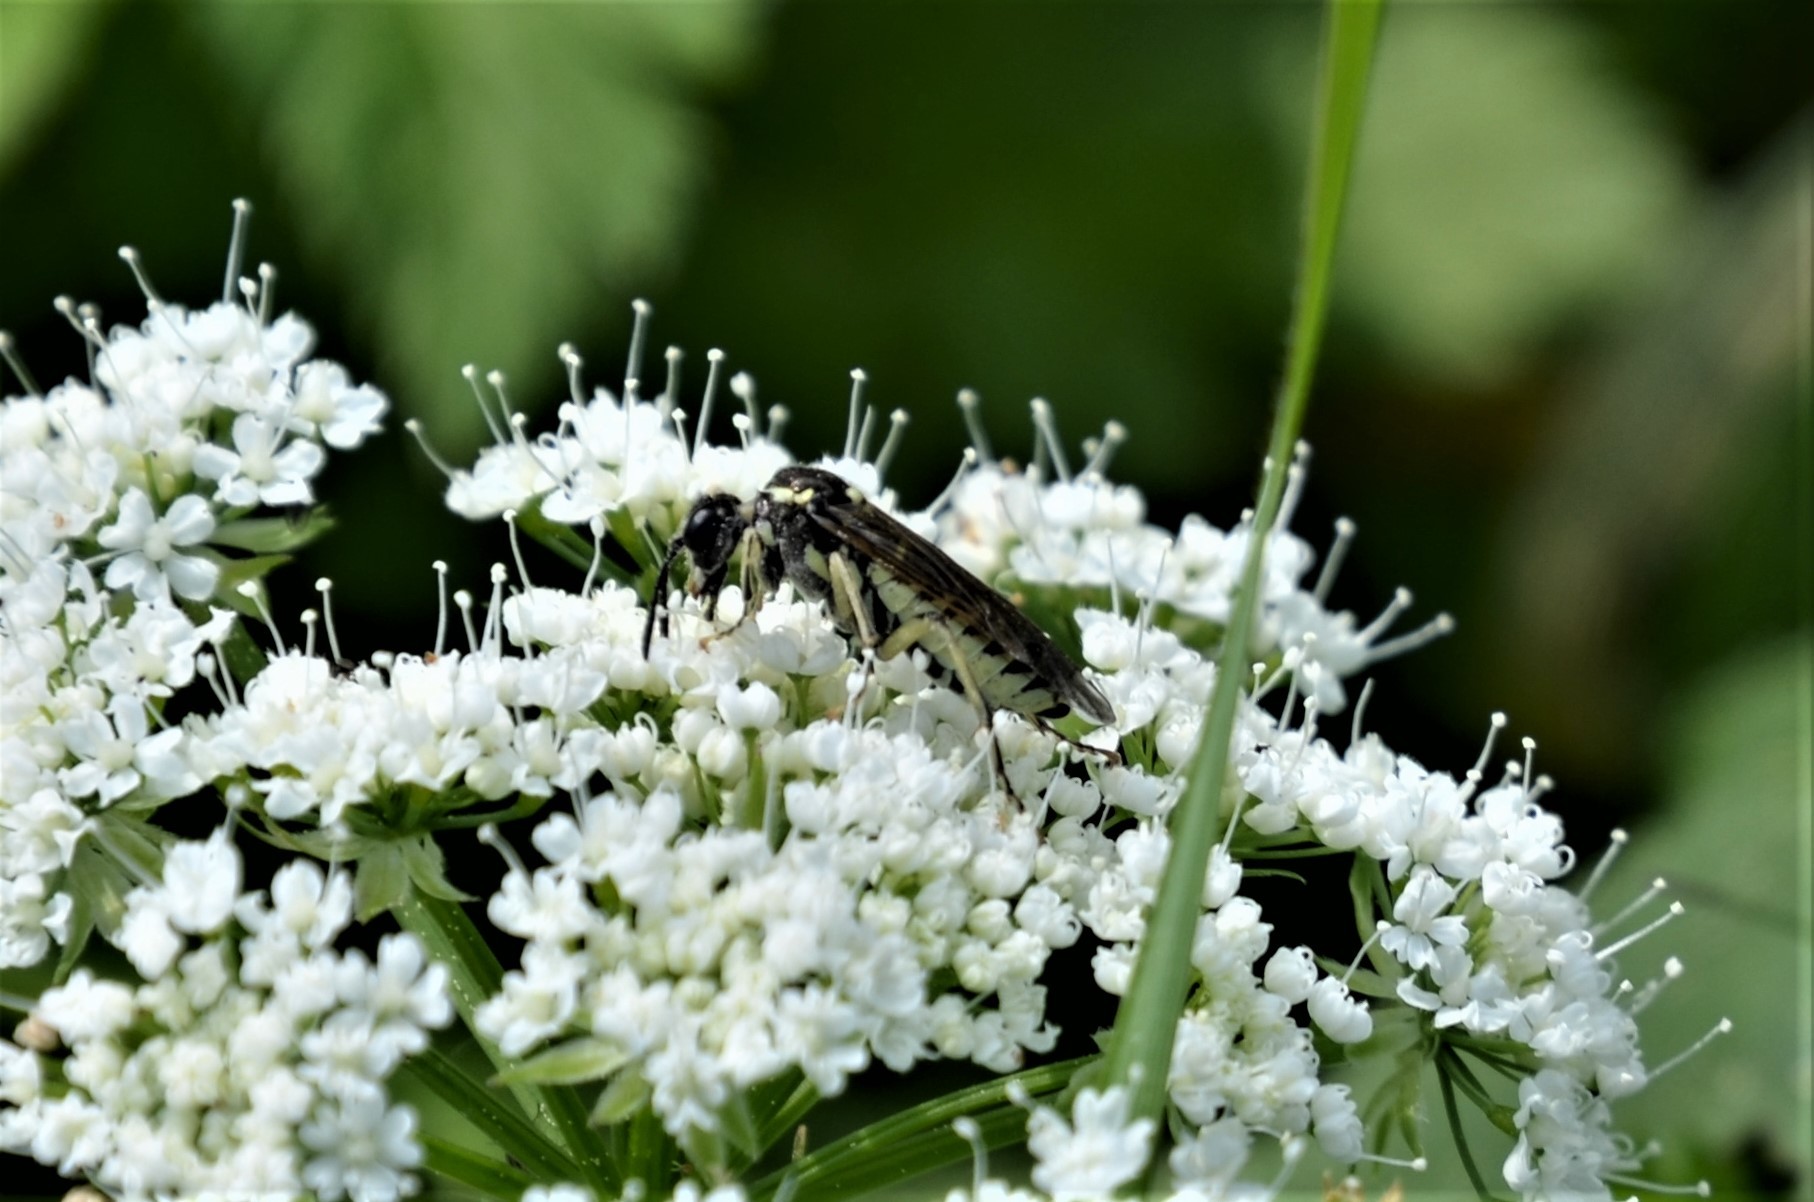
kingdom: Animalia
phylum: Arthropoda
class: Insecta
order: Hymenoptera
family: Tenthredinidae
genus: Tenthredo
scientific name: Tenthredo arcuata
